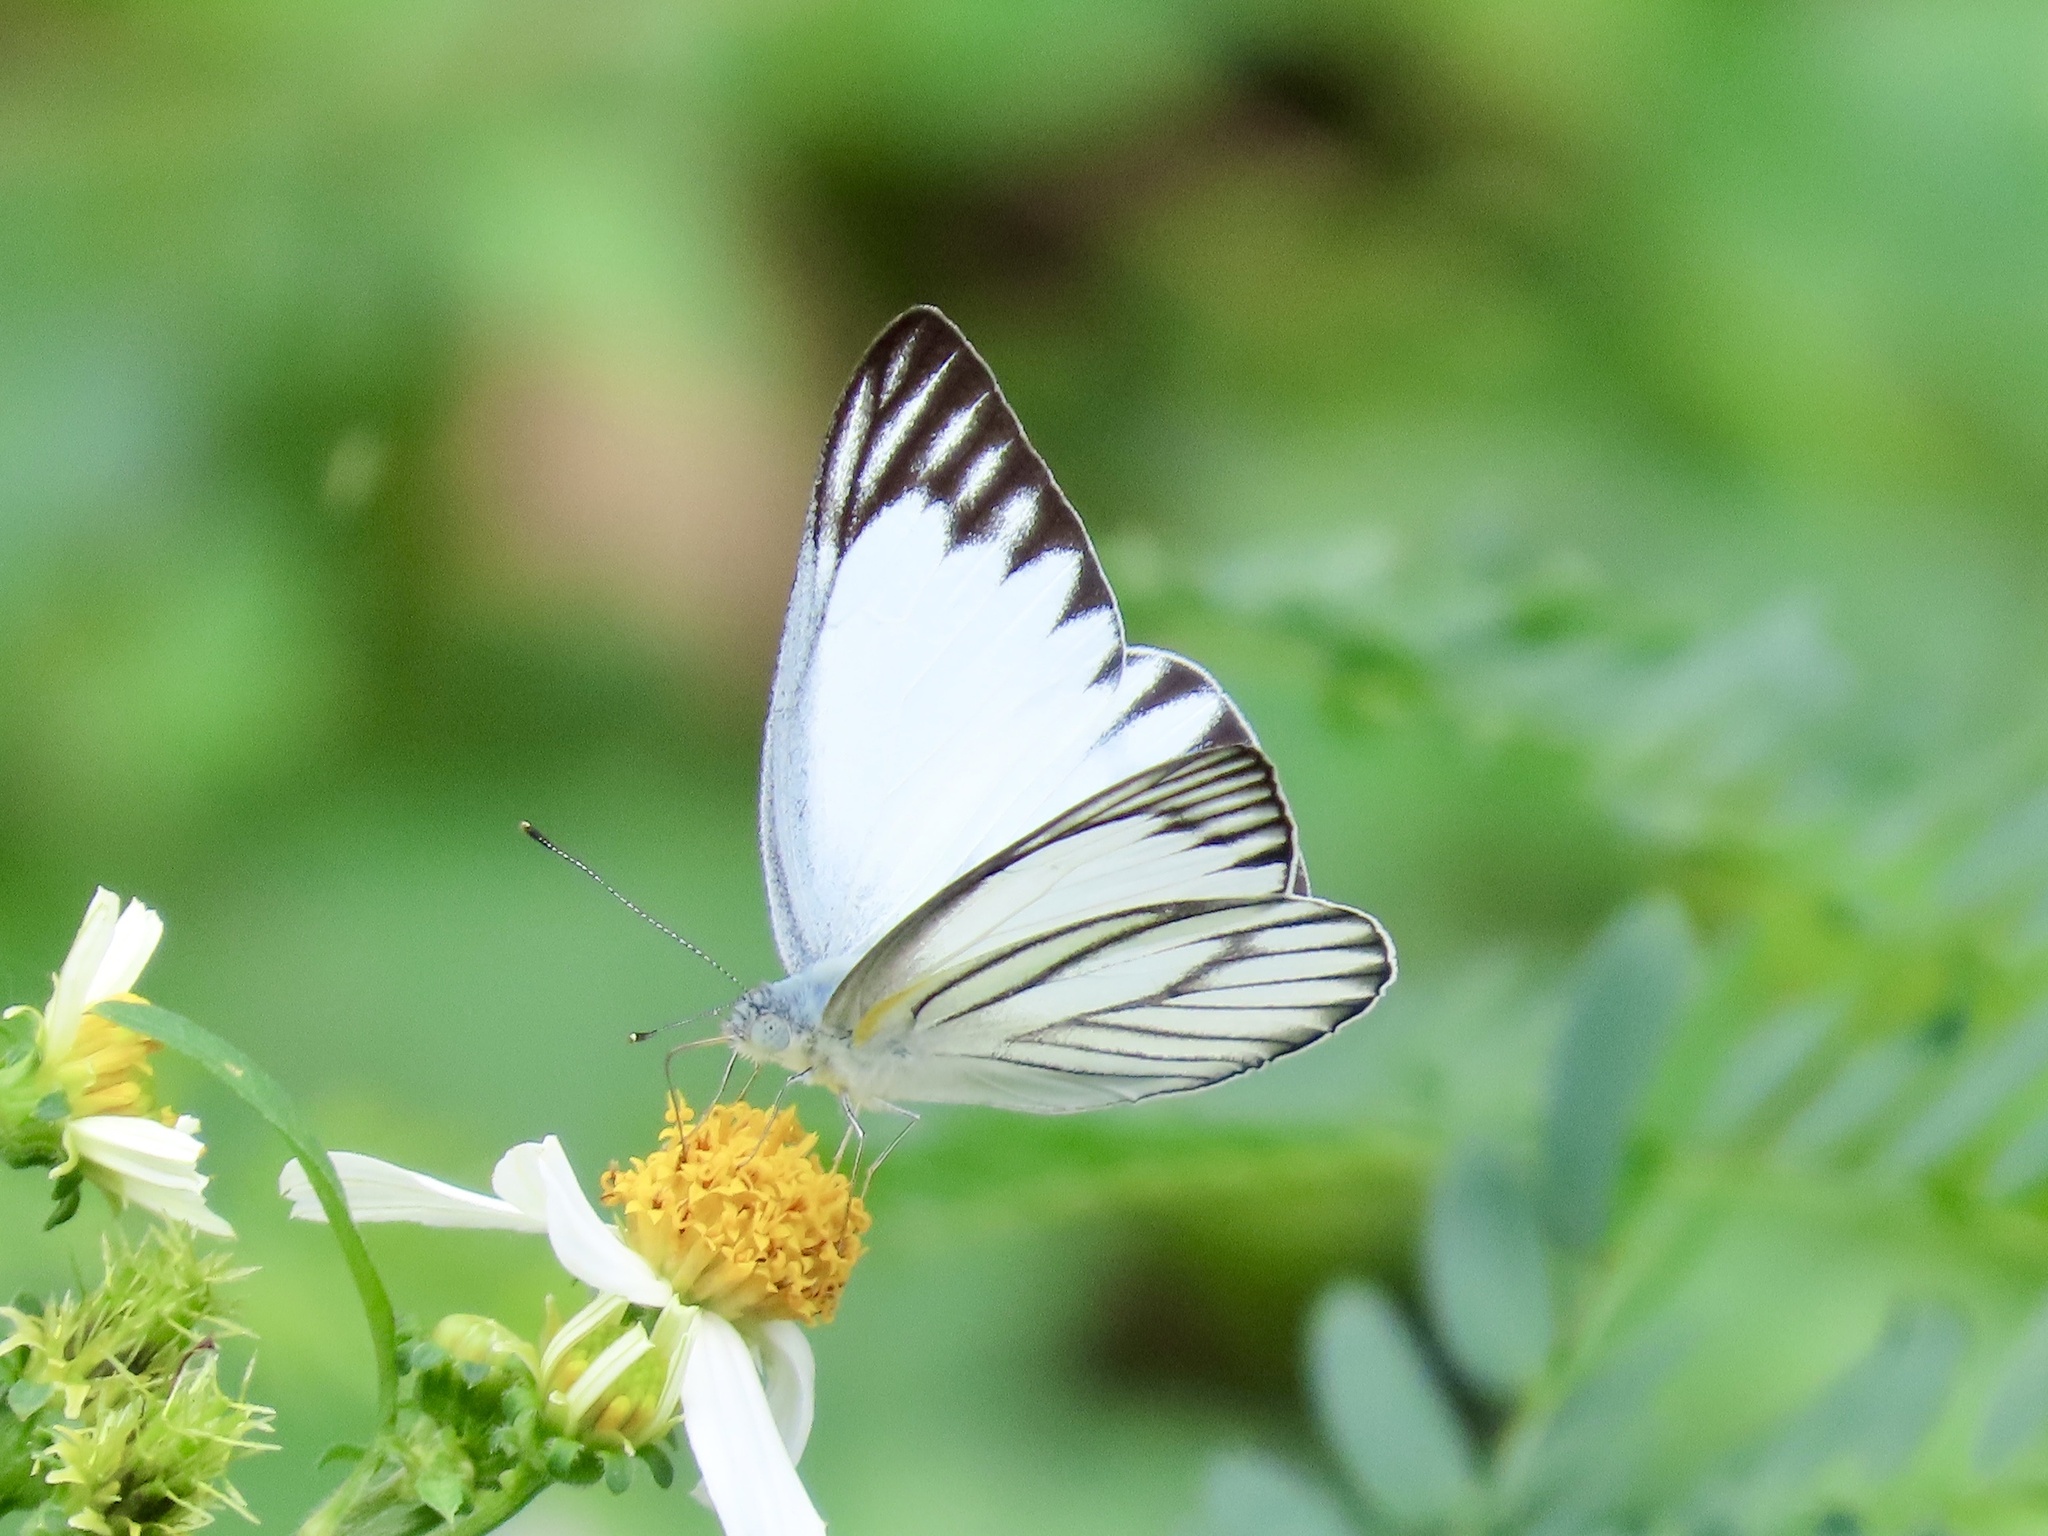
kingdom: Animalia
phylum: Arthropoda
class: Insecta
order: Lepidoptera
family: Pieridae
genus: Appias
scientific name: Appias libythea
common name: Striped albatross
